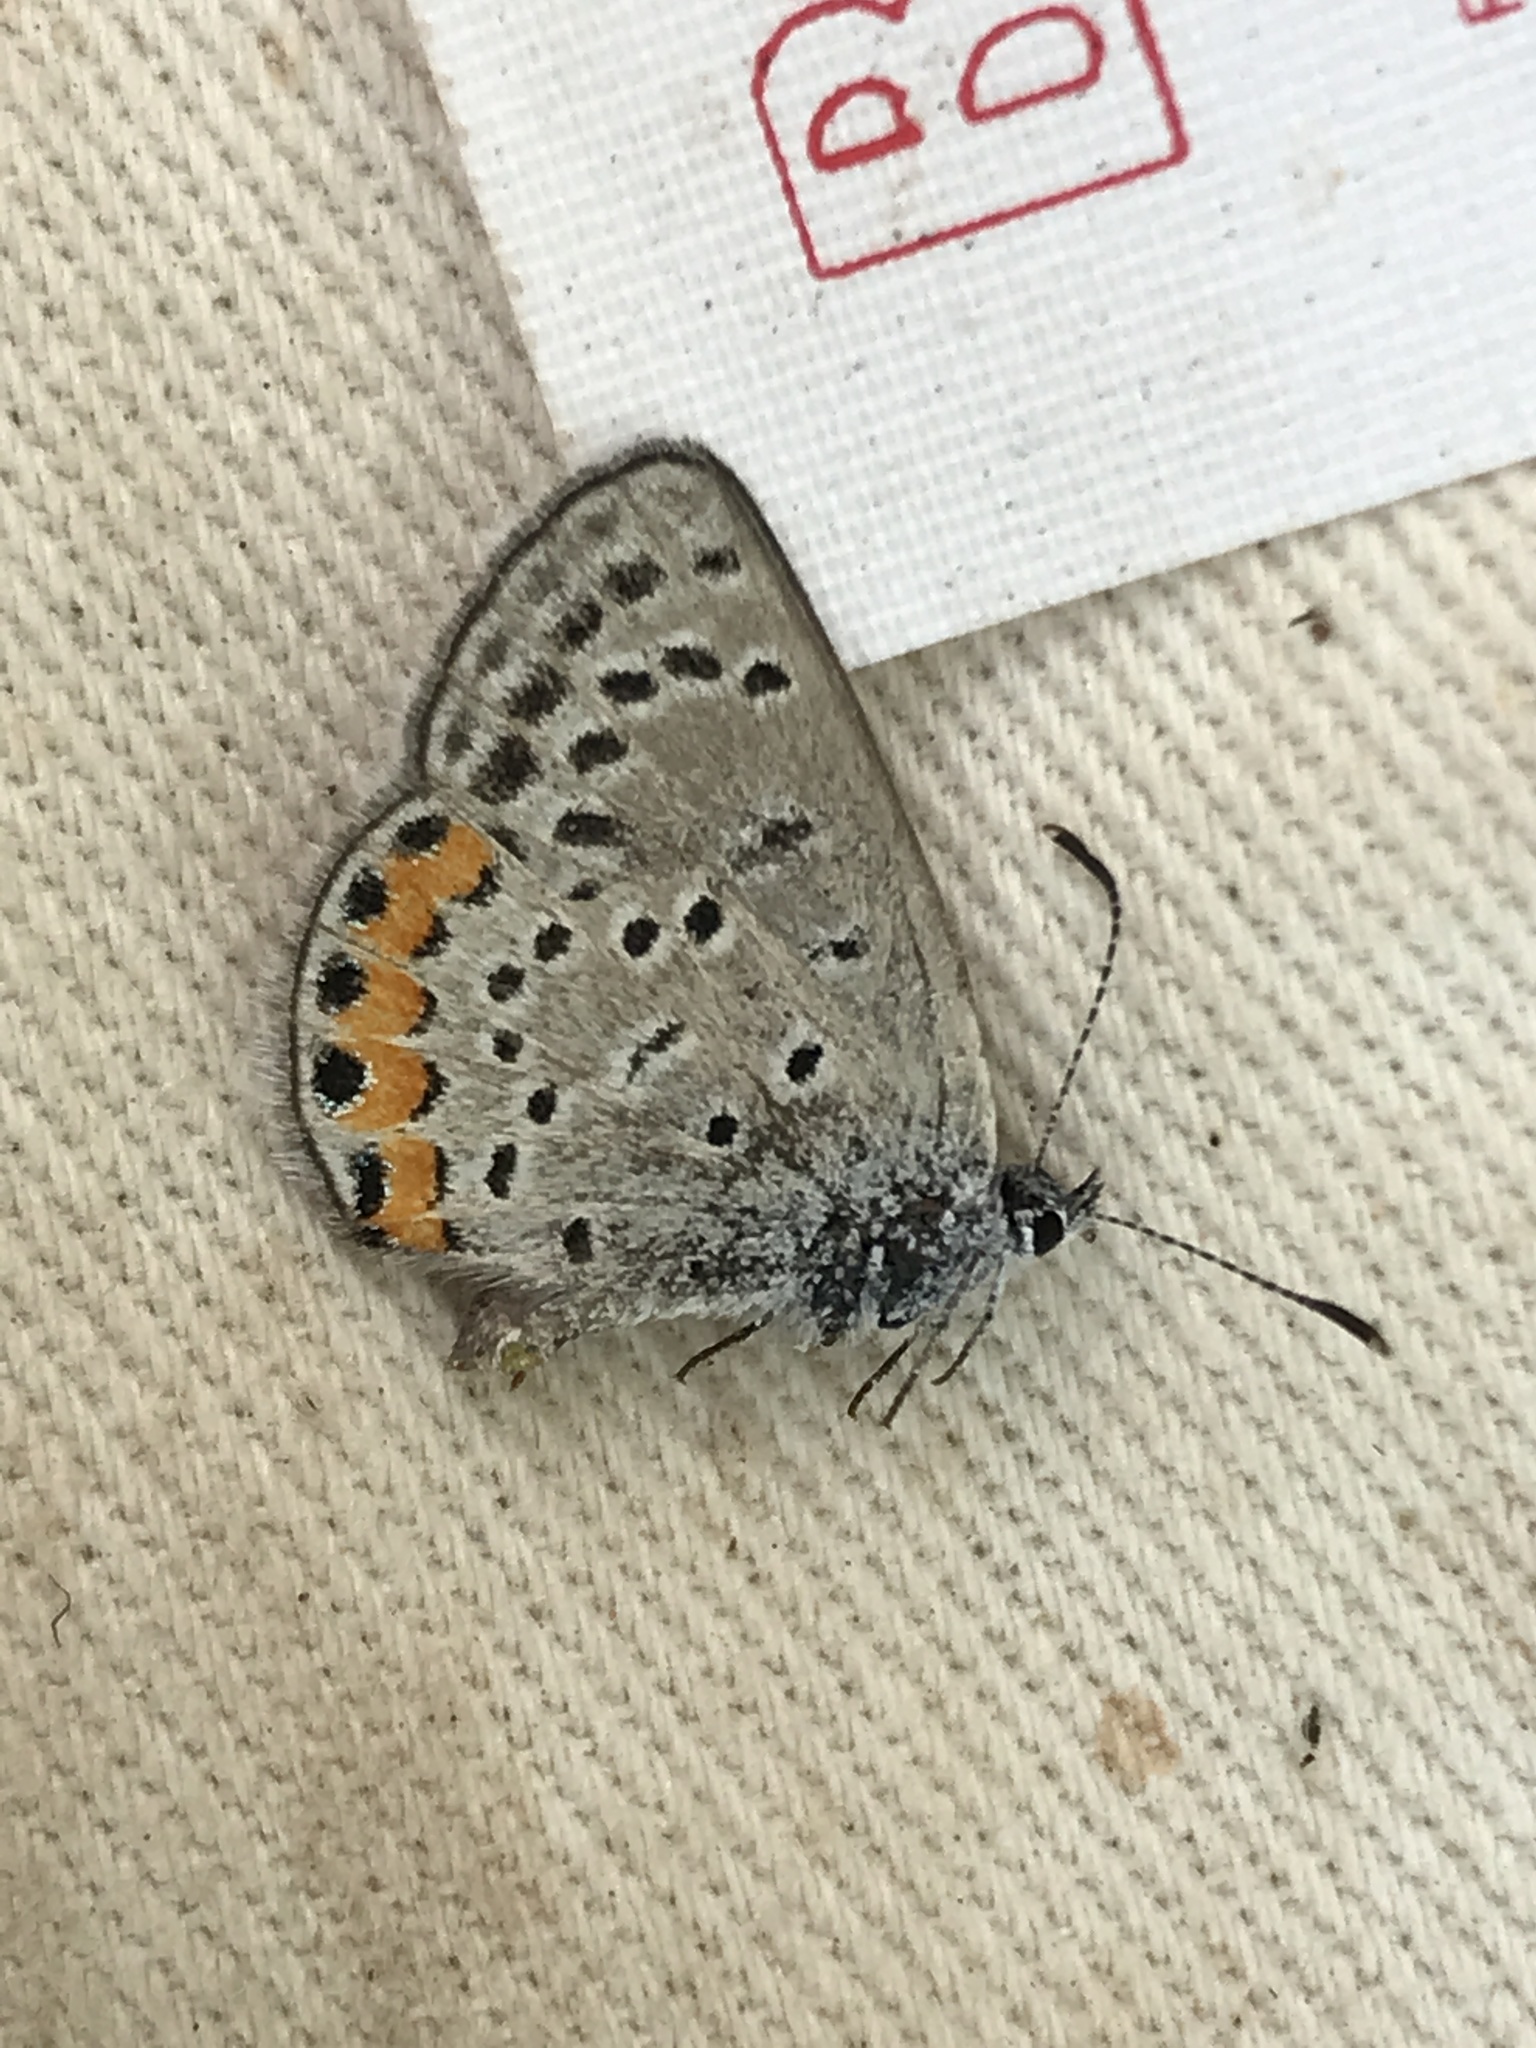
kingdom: Animalia
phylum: Arthropoda
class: Insecta
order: Lepidoptera
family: Lycaenidae
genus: Icaricia
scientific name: Icaricia lupini
